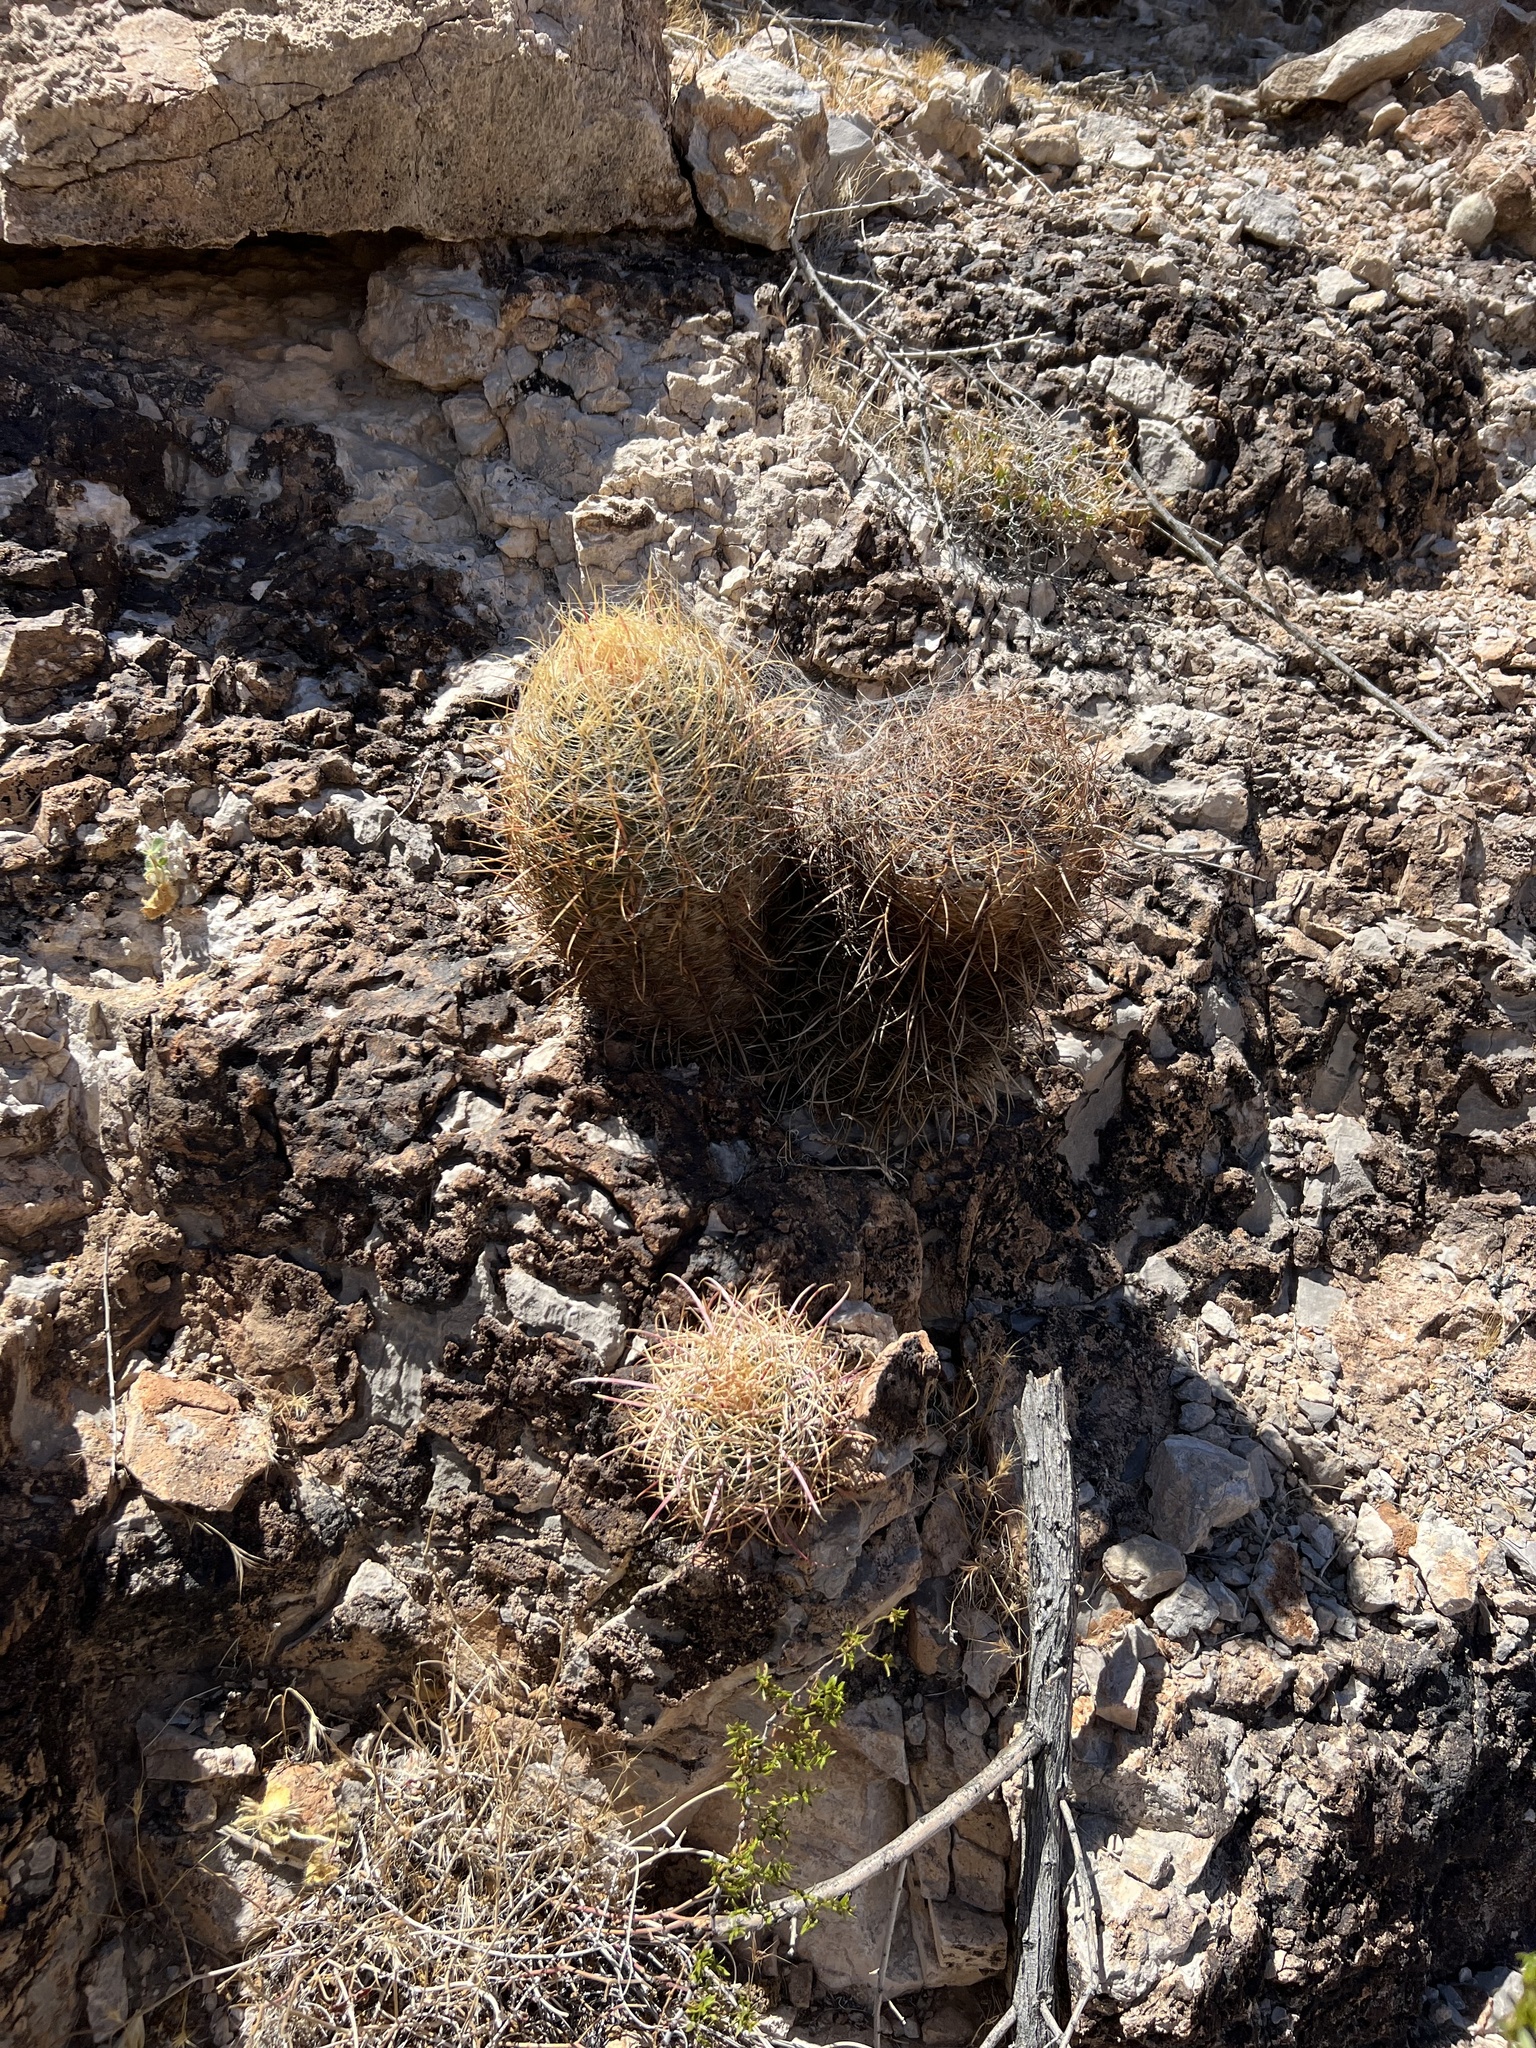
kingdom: Plantae
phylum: Tracheophyta
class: Magnoliopsida
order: Caryophyllales
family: Cactaceae
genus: Ferocactus
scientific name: Ferocactus cylindraceus
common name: California barrel cactus
